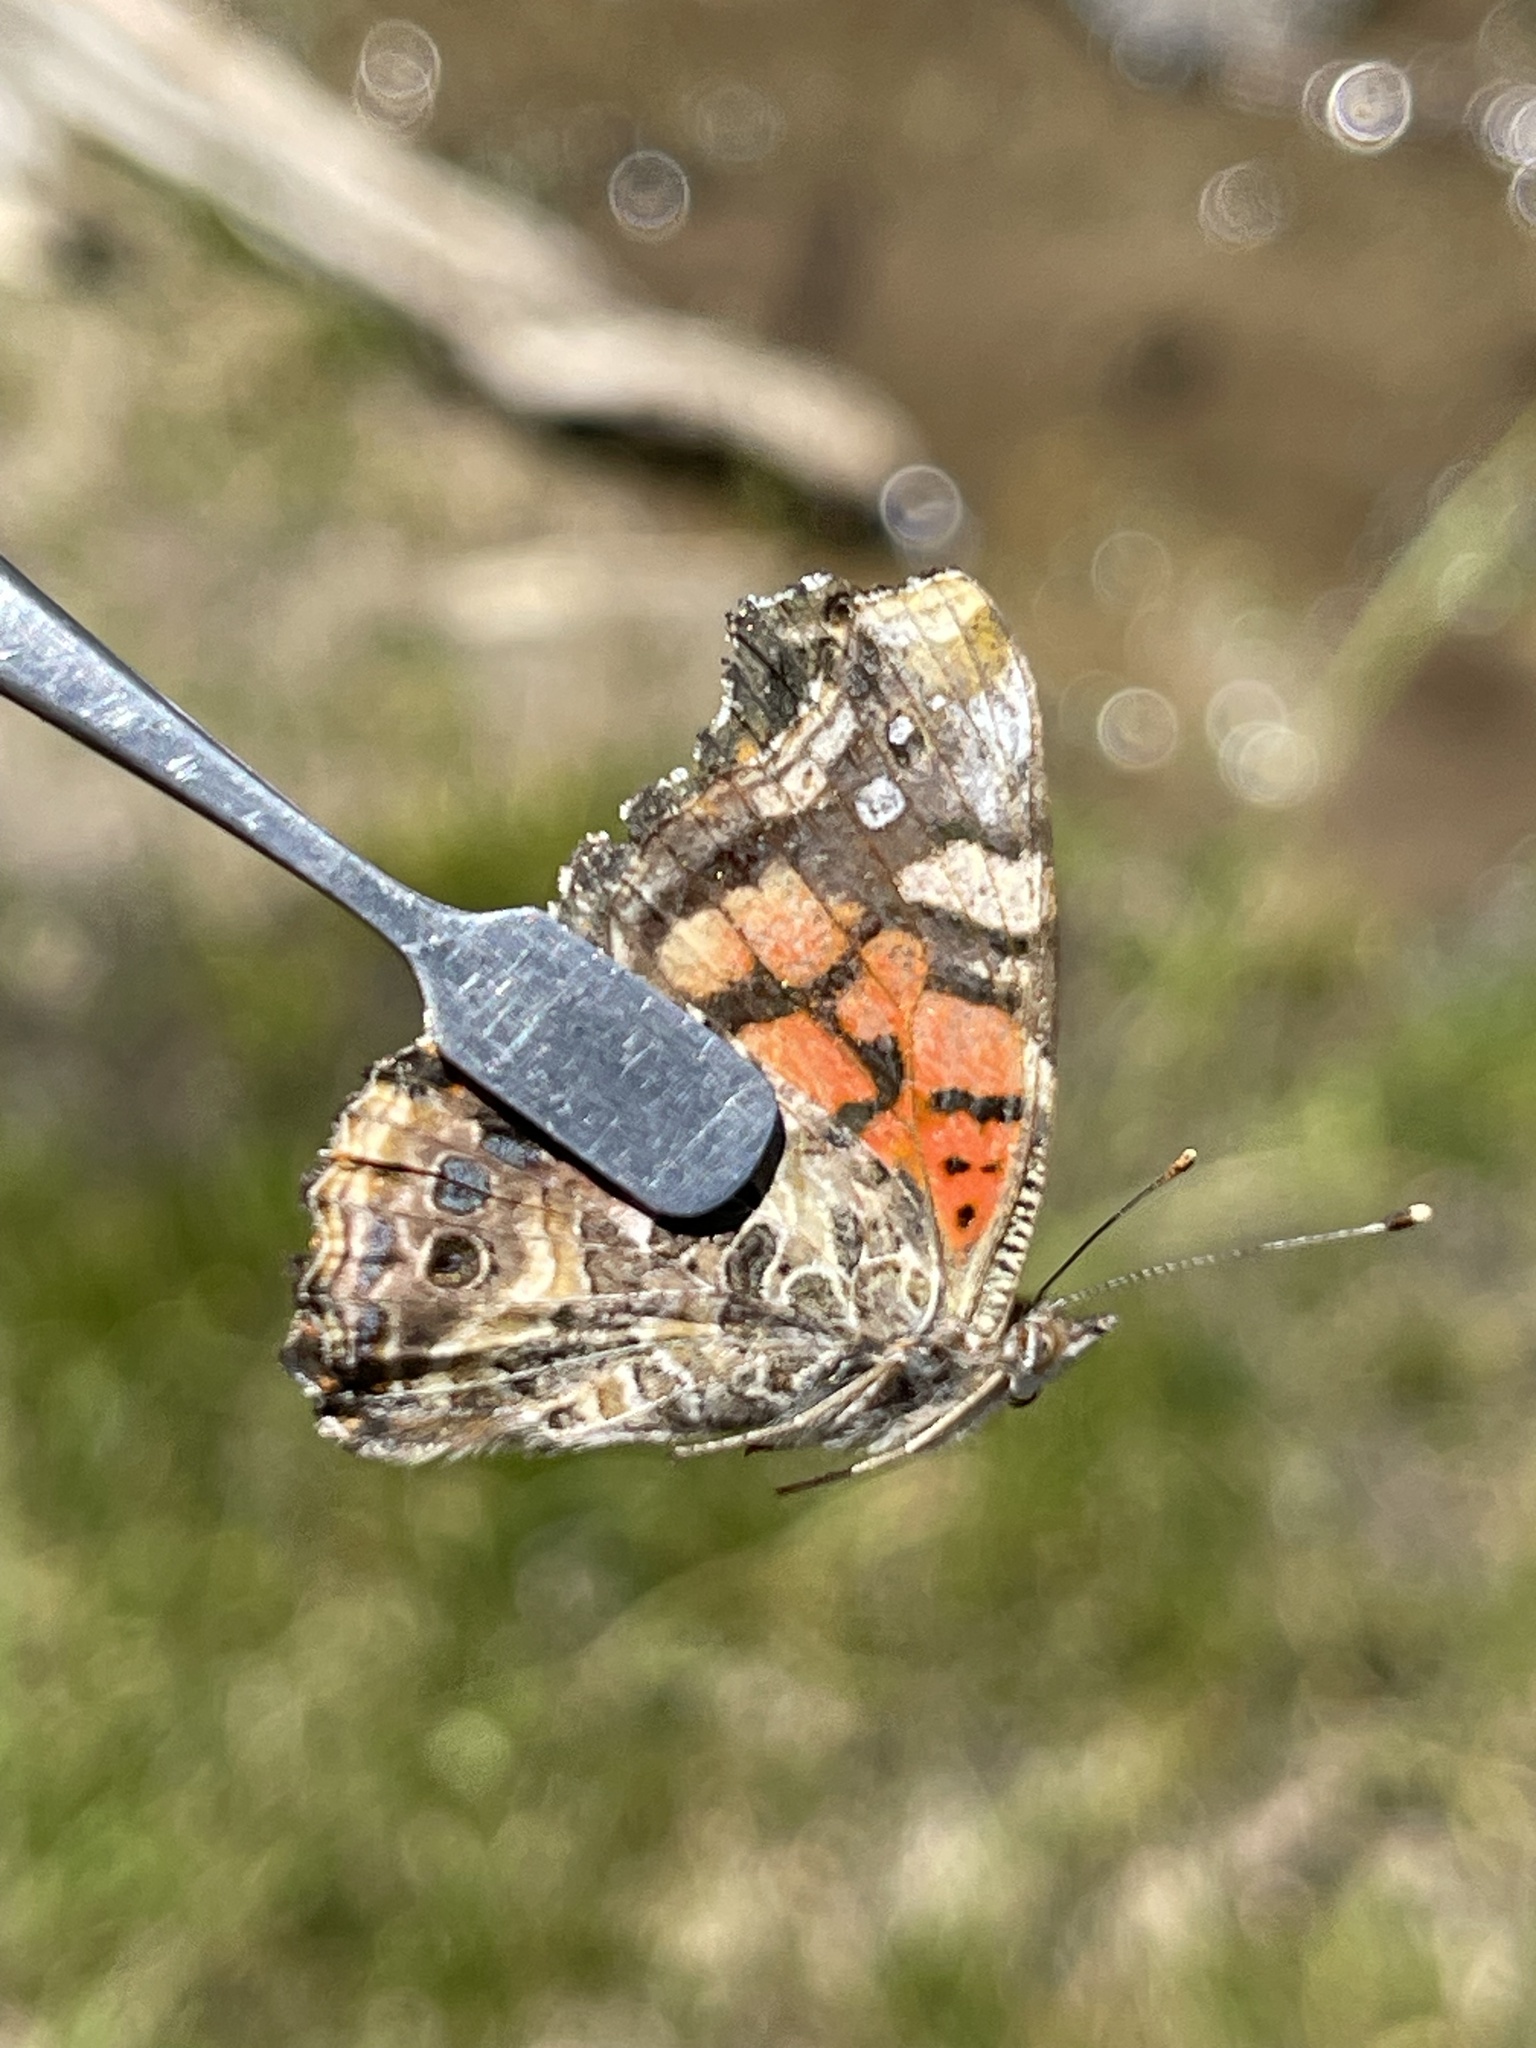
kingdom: Animalia
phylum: Arthropoda
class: Insecta
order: Lepidoptera
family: Nymphalidae
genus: Vanessa
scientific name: Vanessa annabella
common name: West coast lady
